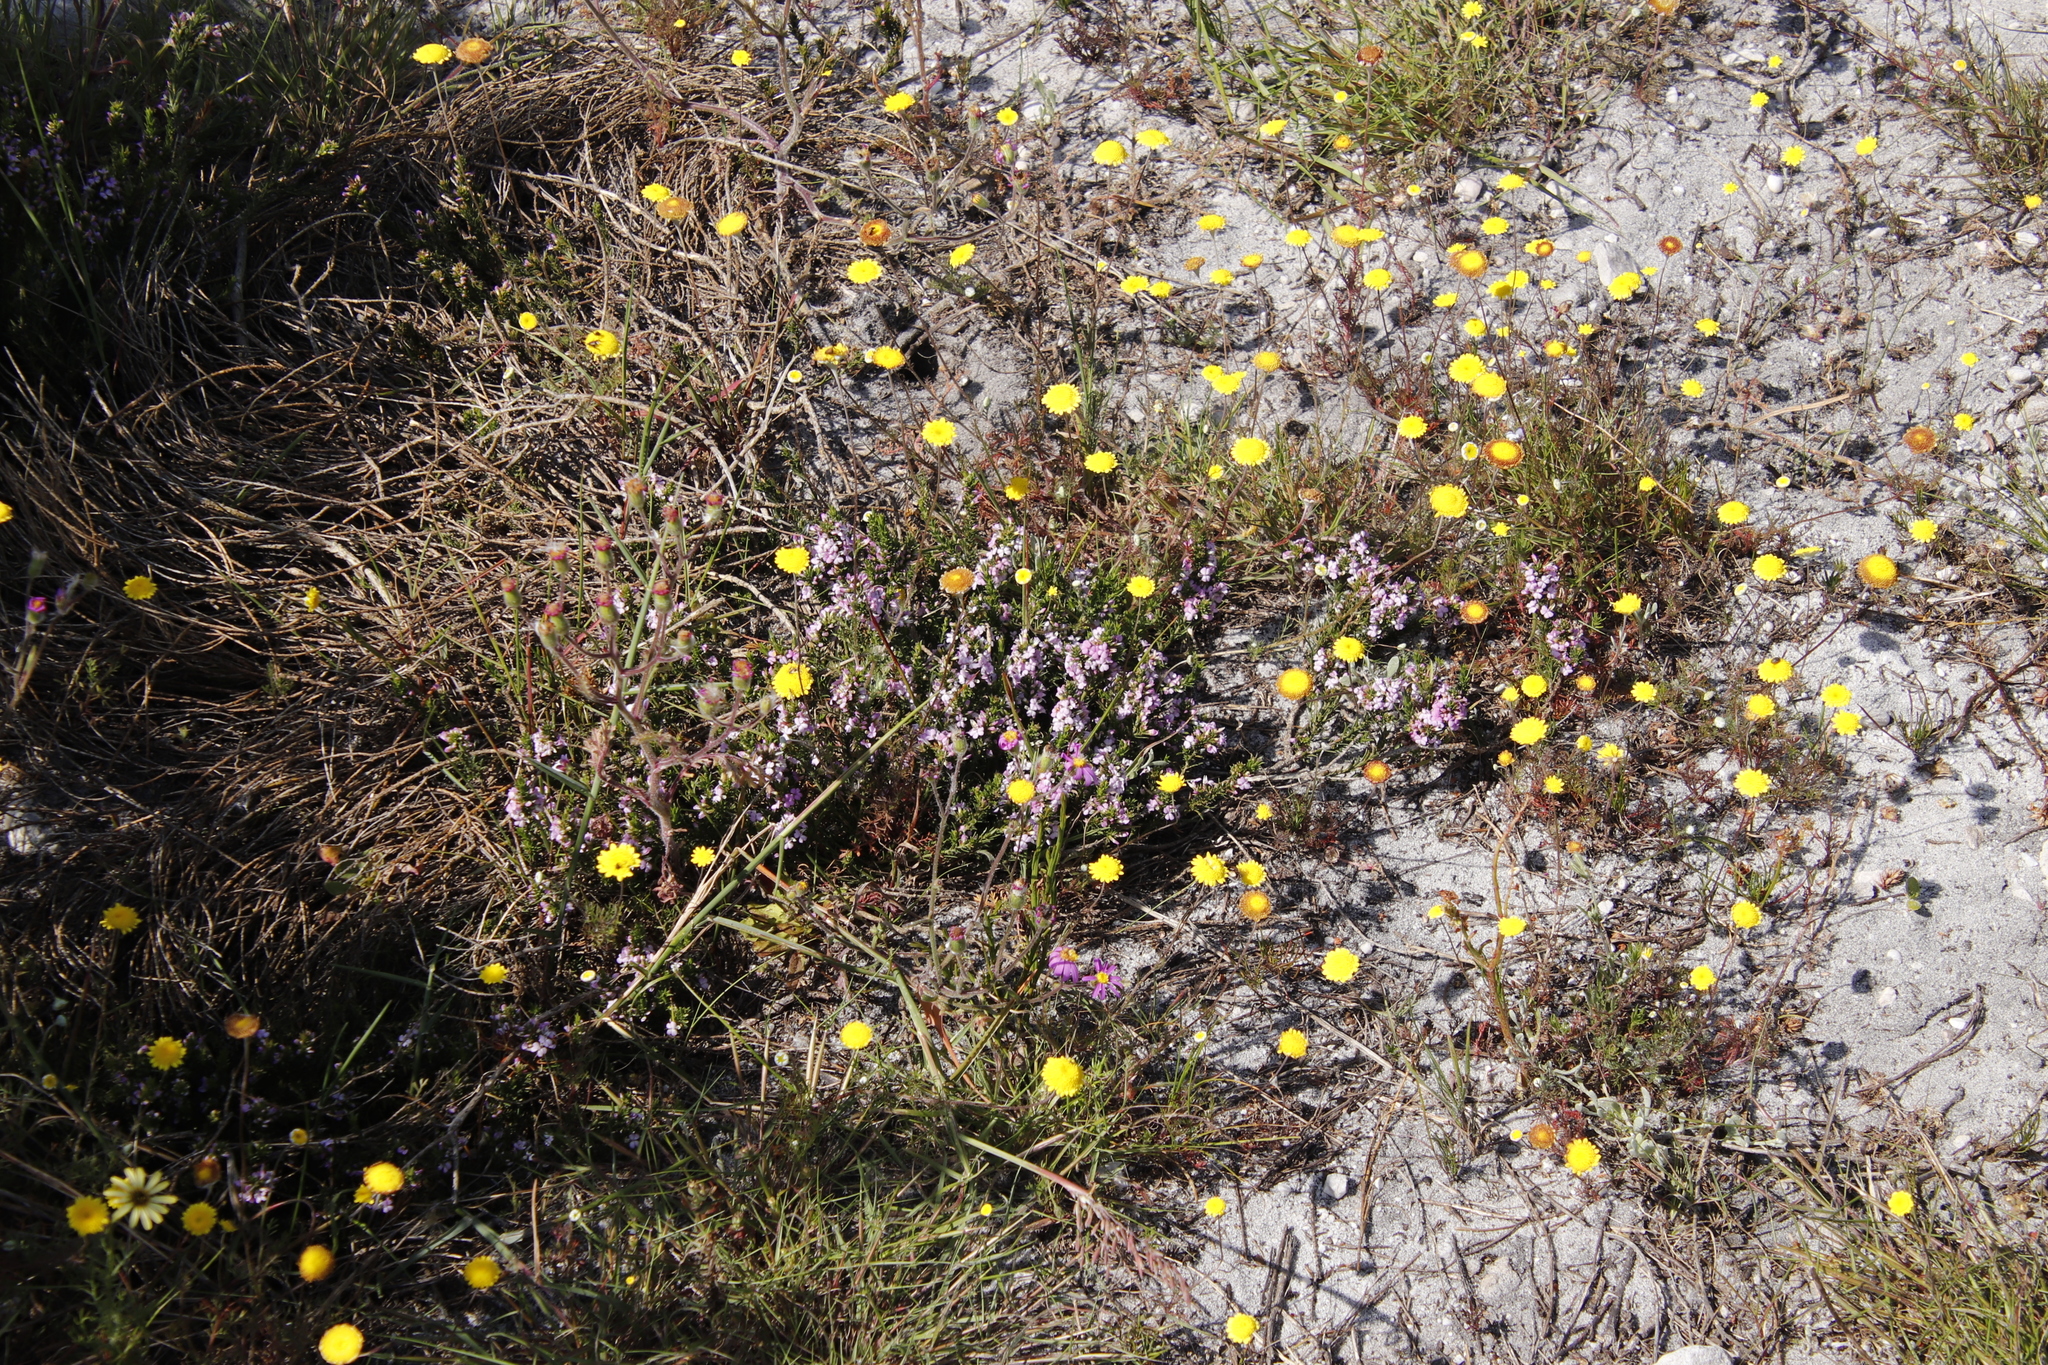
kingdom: Plantae
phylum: Tracheophyta
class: Magnoliopsida
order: Asterales
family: Asteraceae
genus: Cotula
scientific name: Cotula pruinosa
